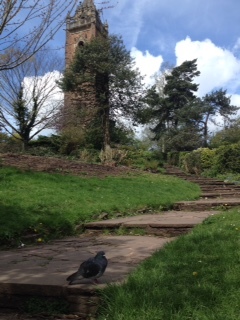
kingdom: Animalia
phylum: Chordata
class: Aves
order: Columbiformes
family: Columbidae
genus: Columba
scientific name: Columba livia
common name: Rock pigeon
